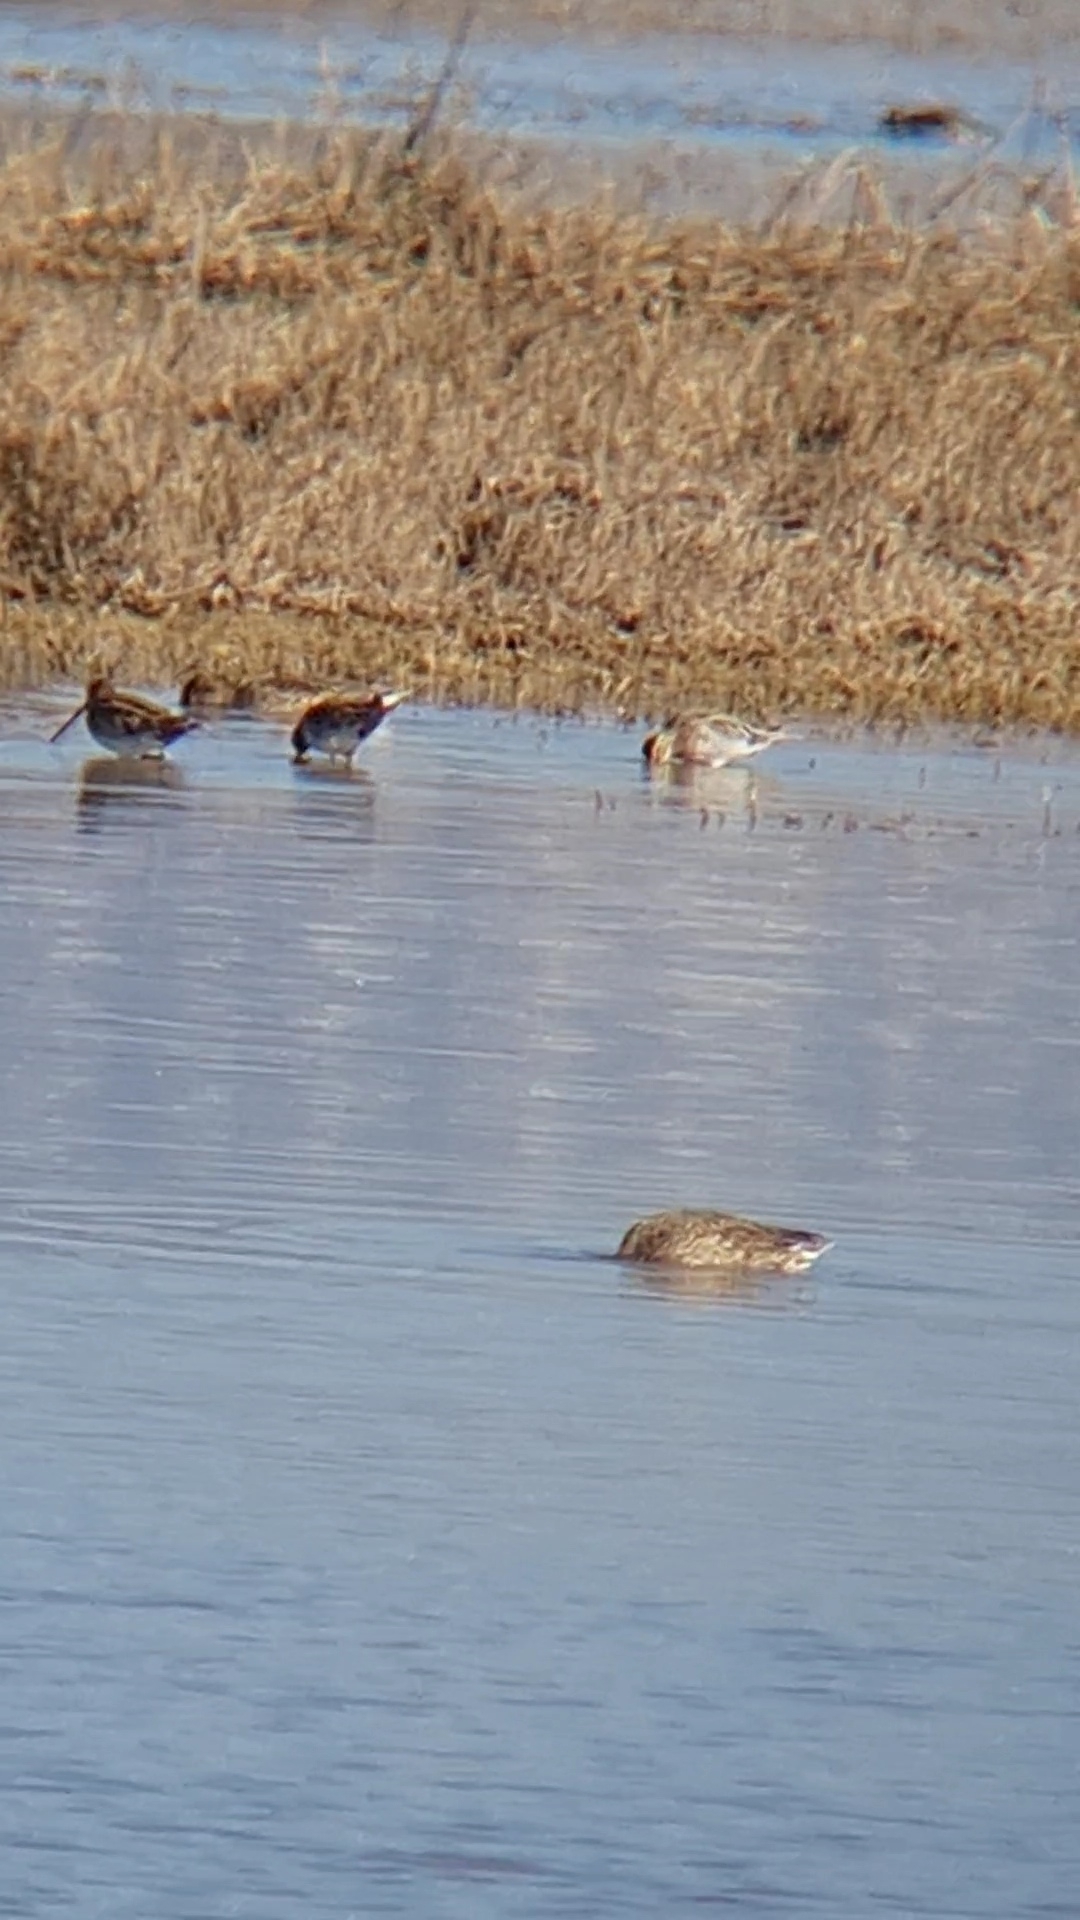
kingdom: Animalia
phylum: Chordata
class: Aves
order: Charadriiformes
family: Scolopacidae
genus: Gallinago
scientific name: Gallinago gallinago
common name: Common snipe
